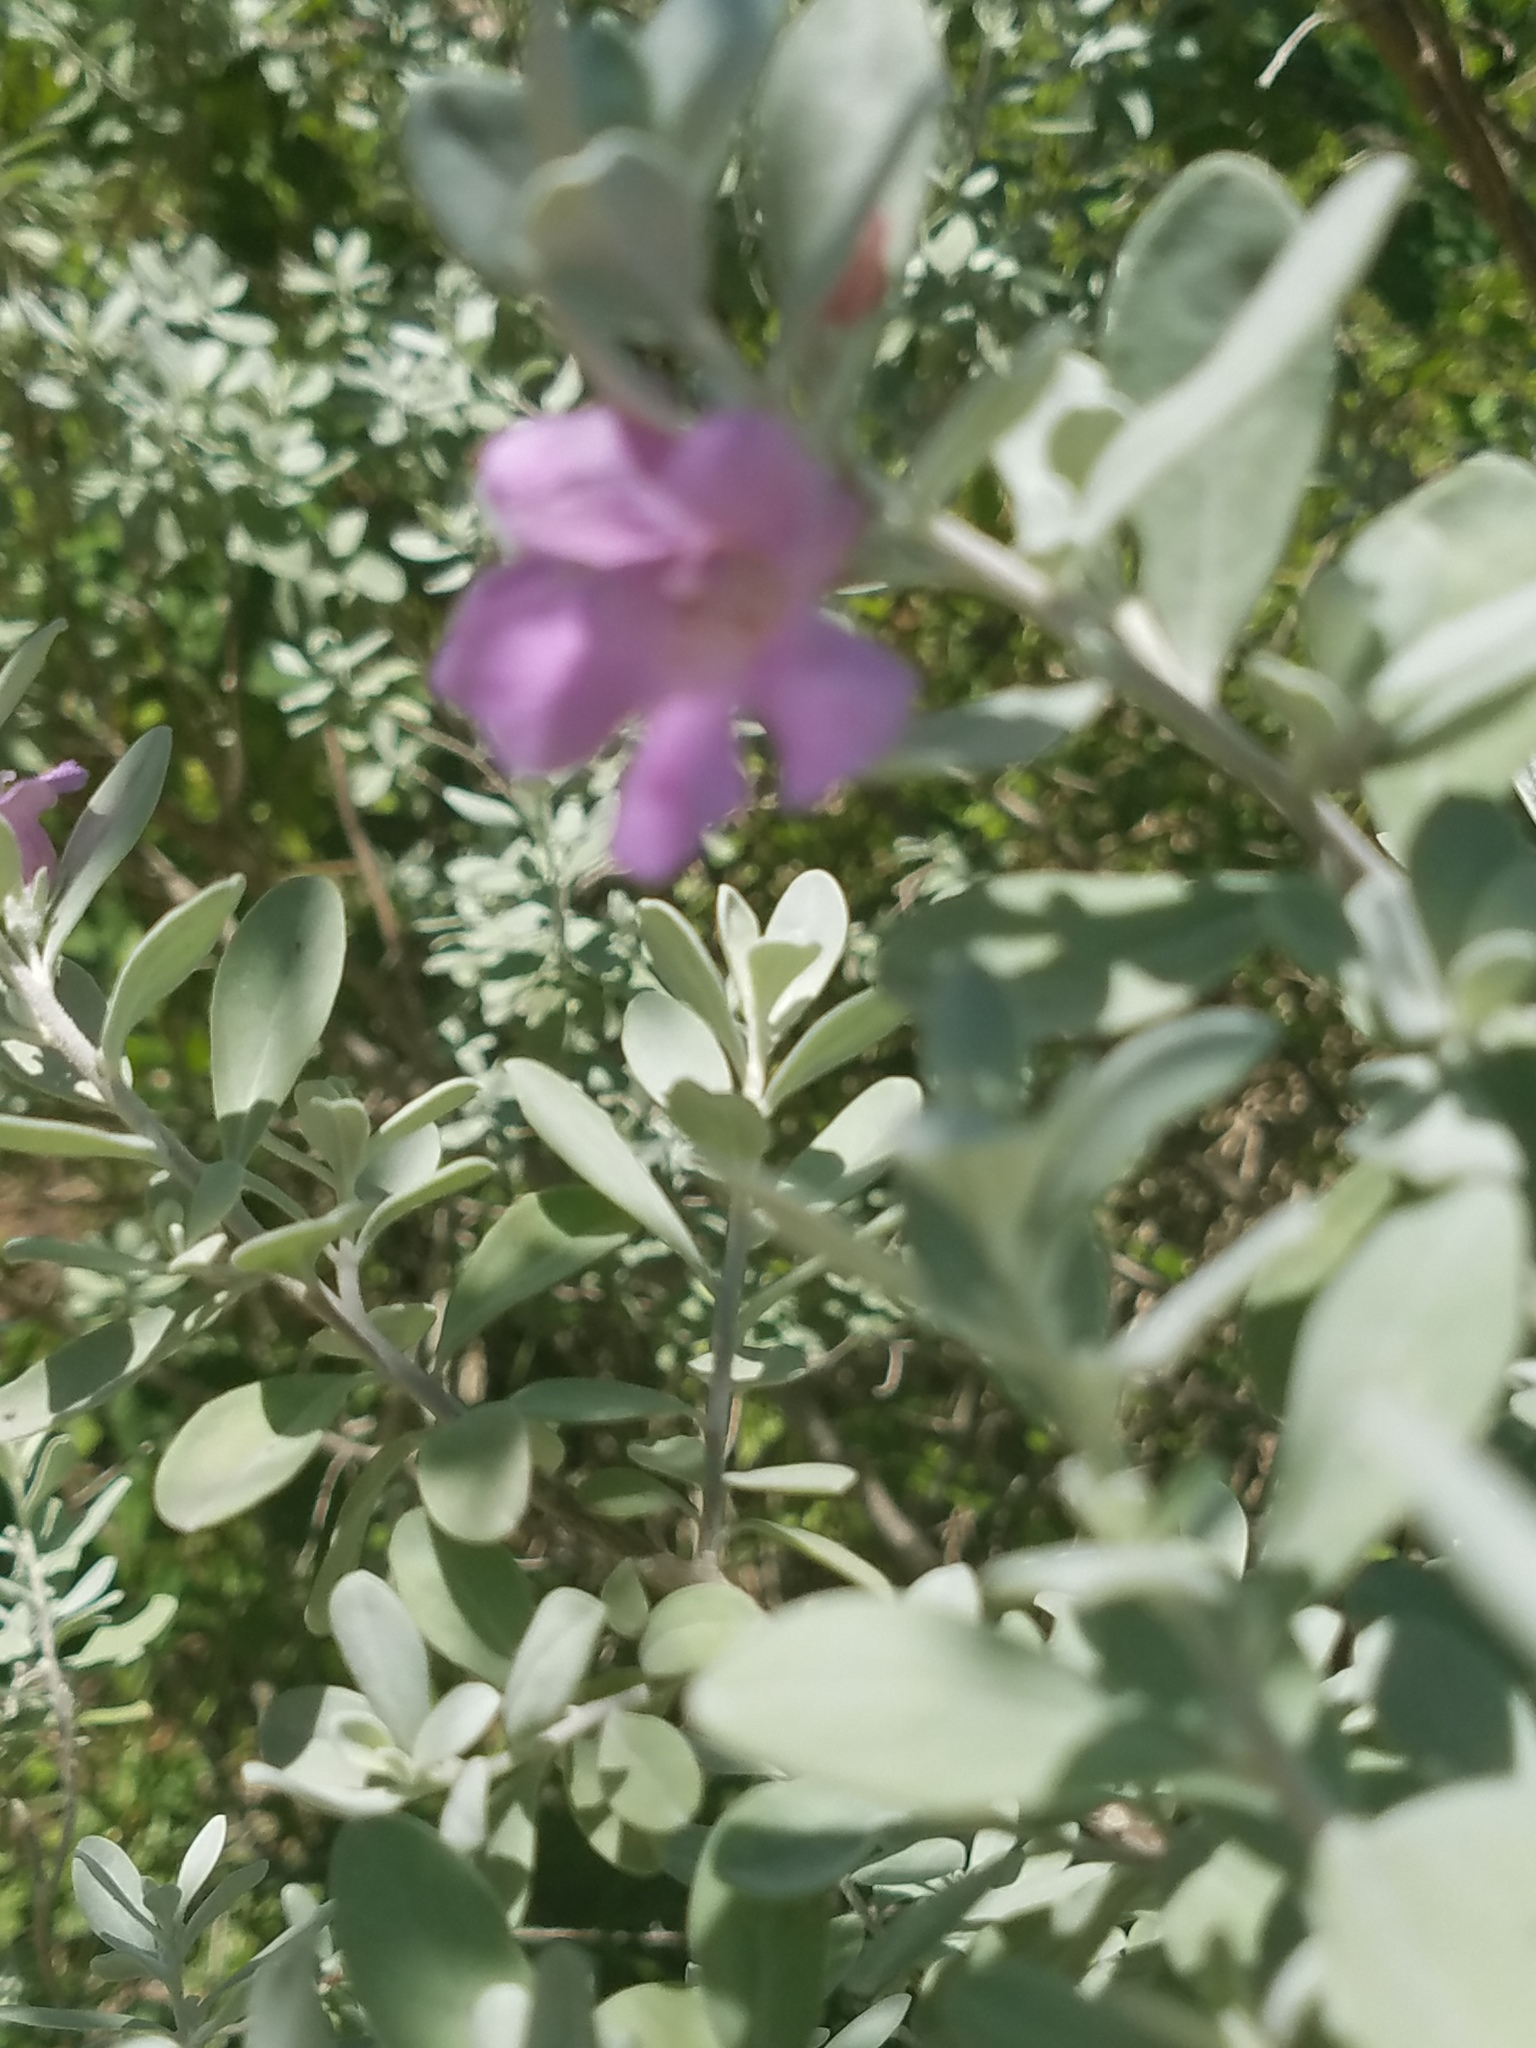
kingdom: Plantae
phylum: Tracheophyta
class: Magnoliopsida
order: Lamiales
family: Scrophulariaceae
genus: Leucophyllum
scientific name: Leucophyllum frutescens
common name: Texas silverleaf
